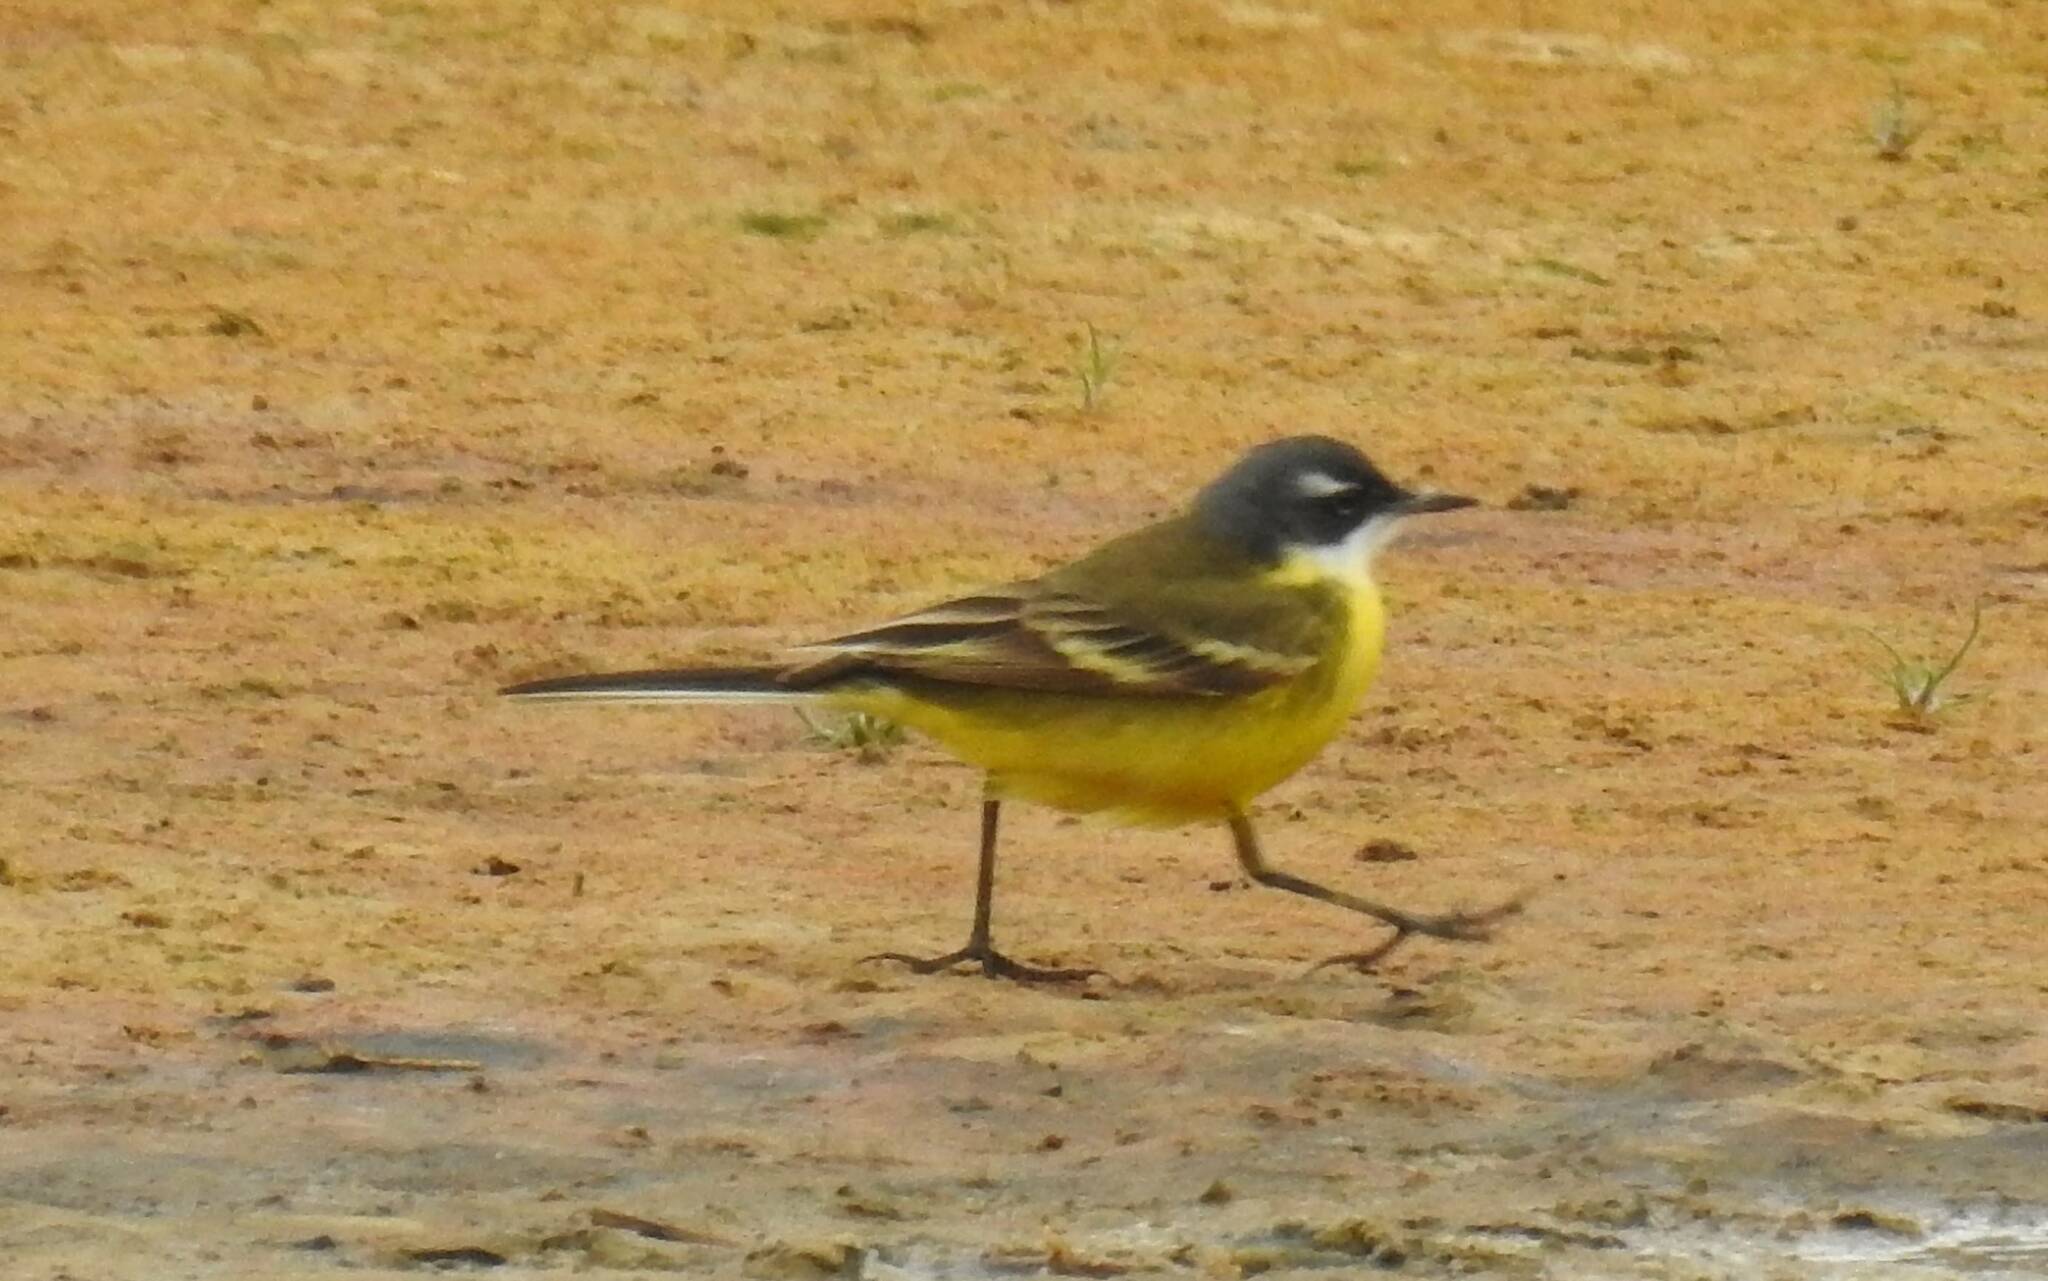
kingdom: Animalia
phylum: Chordata
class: Aves
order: Passeriformes
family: Motacillidae
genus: Motacilla
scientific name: Motacilla flava
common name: Western yellow wagtail
